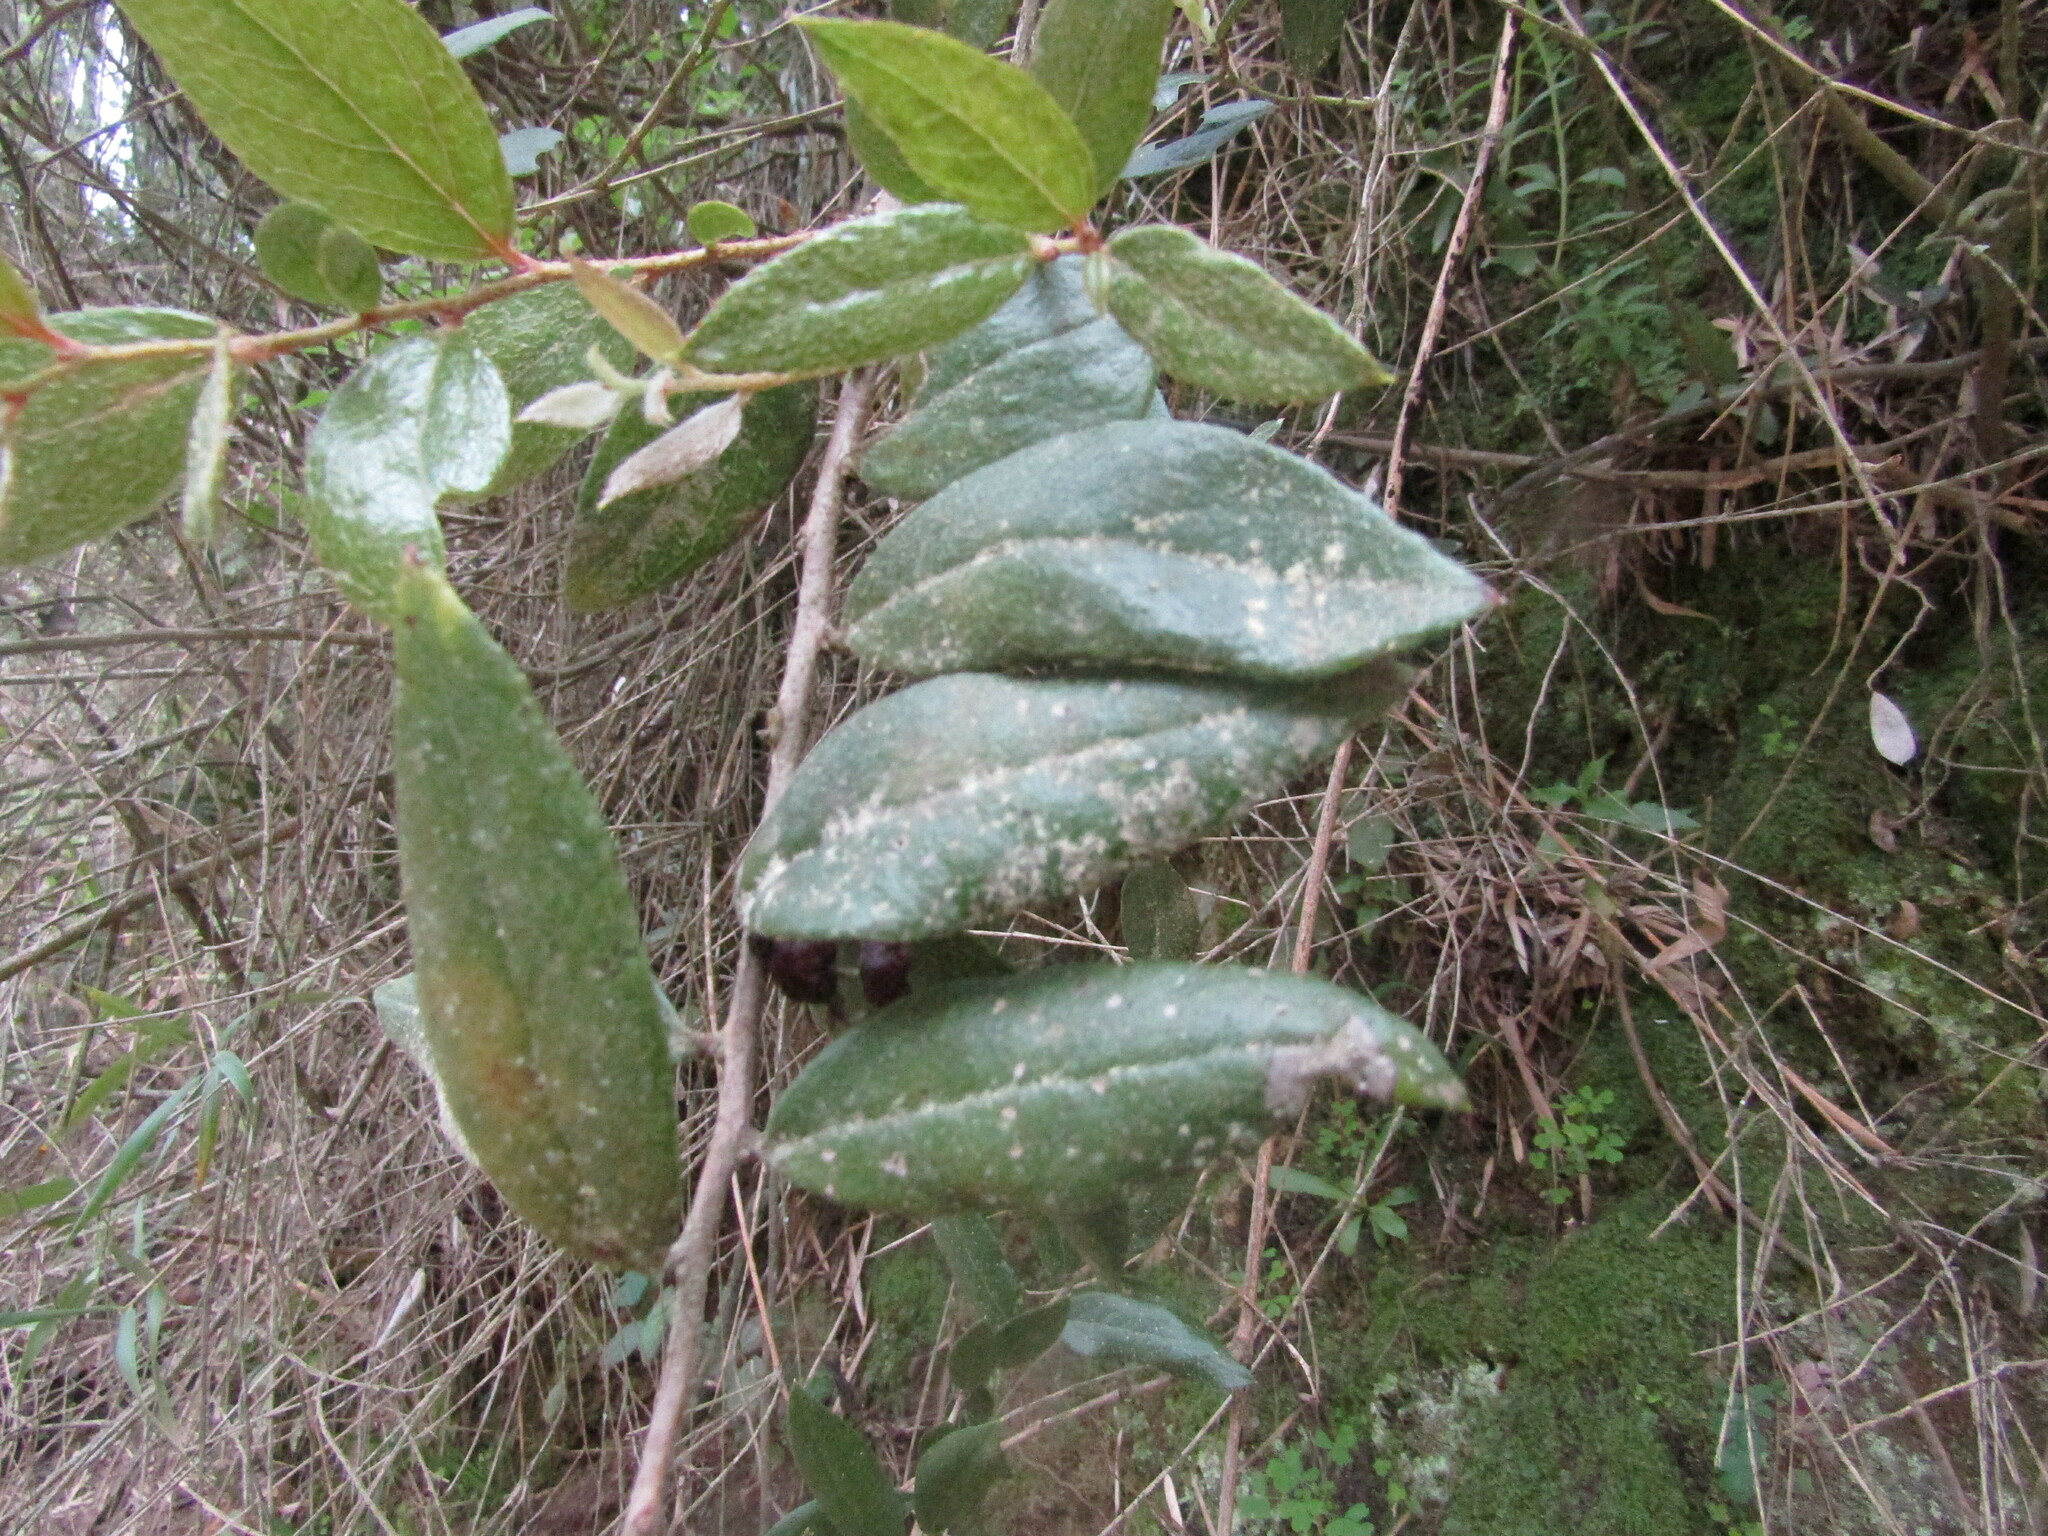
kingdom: Plantae
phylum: Tracheophyta
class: Magnoliopsida
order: Ericales
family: Ericaceae
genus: Gaultheria
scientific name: Gaultheria insana
